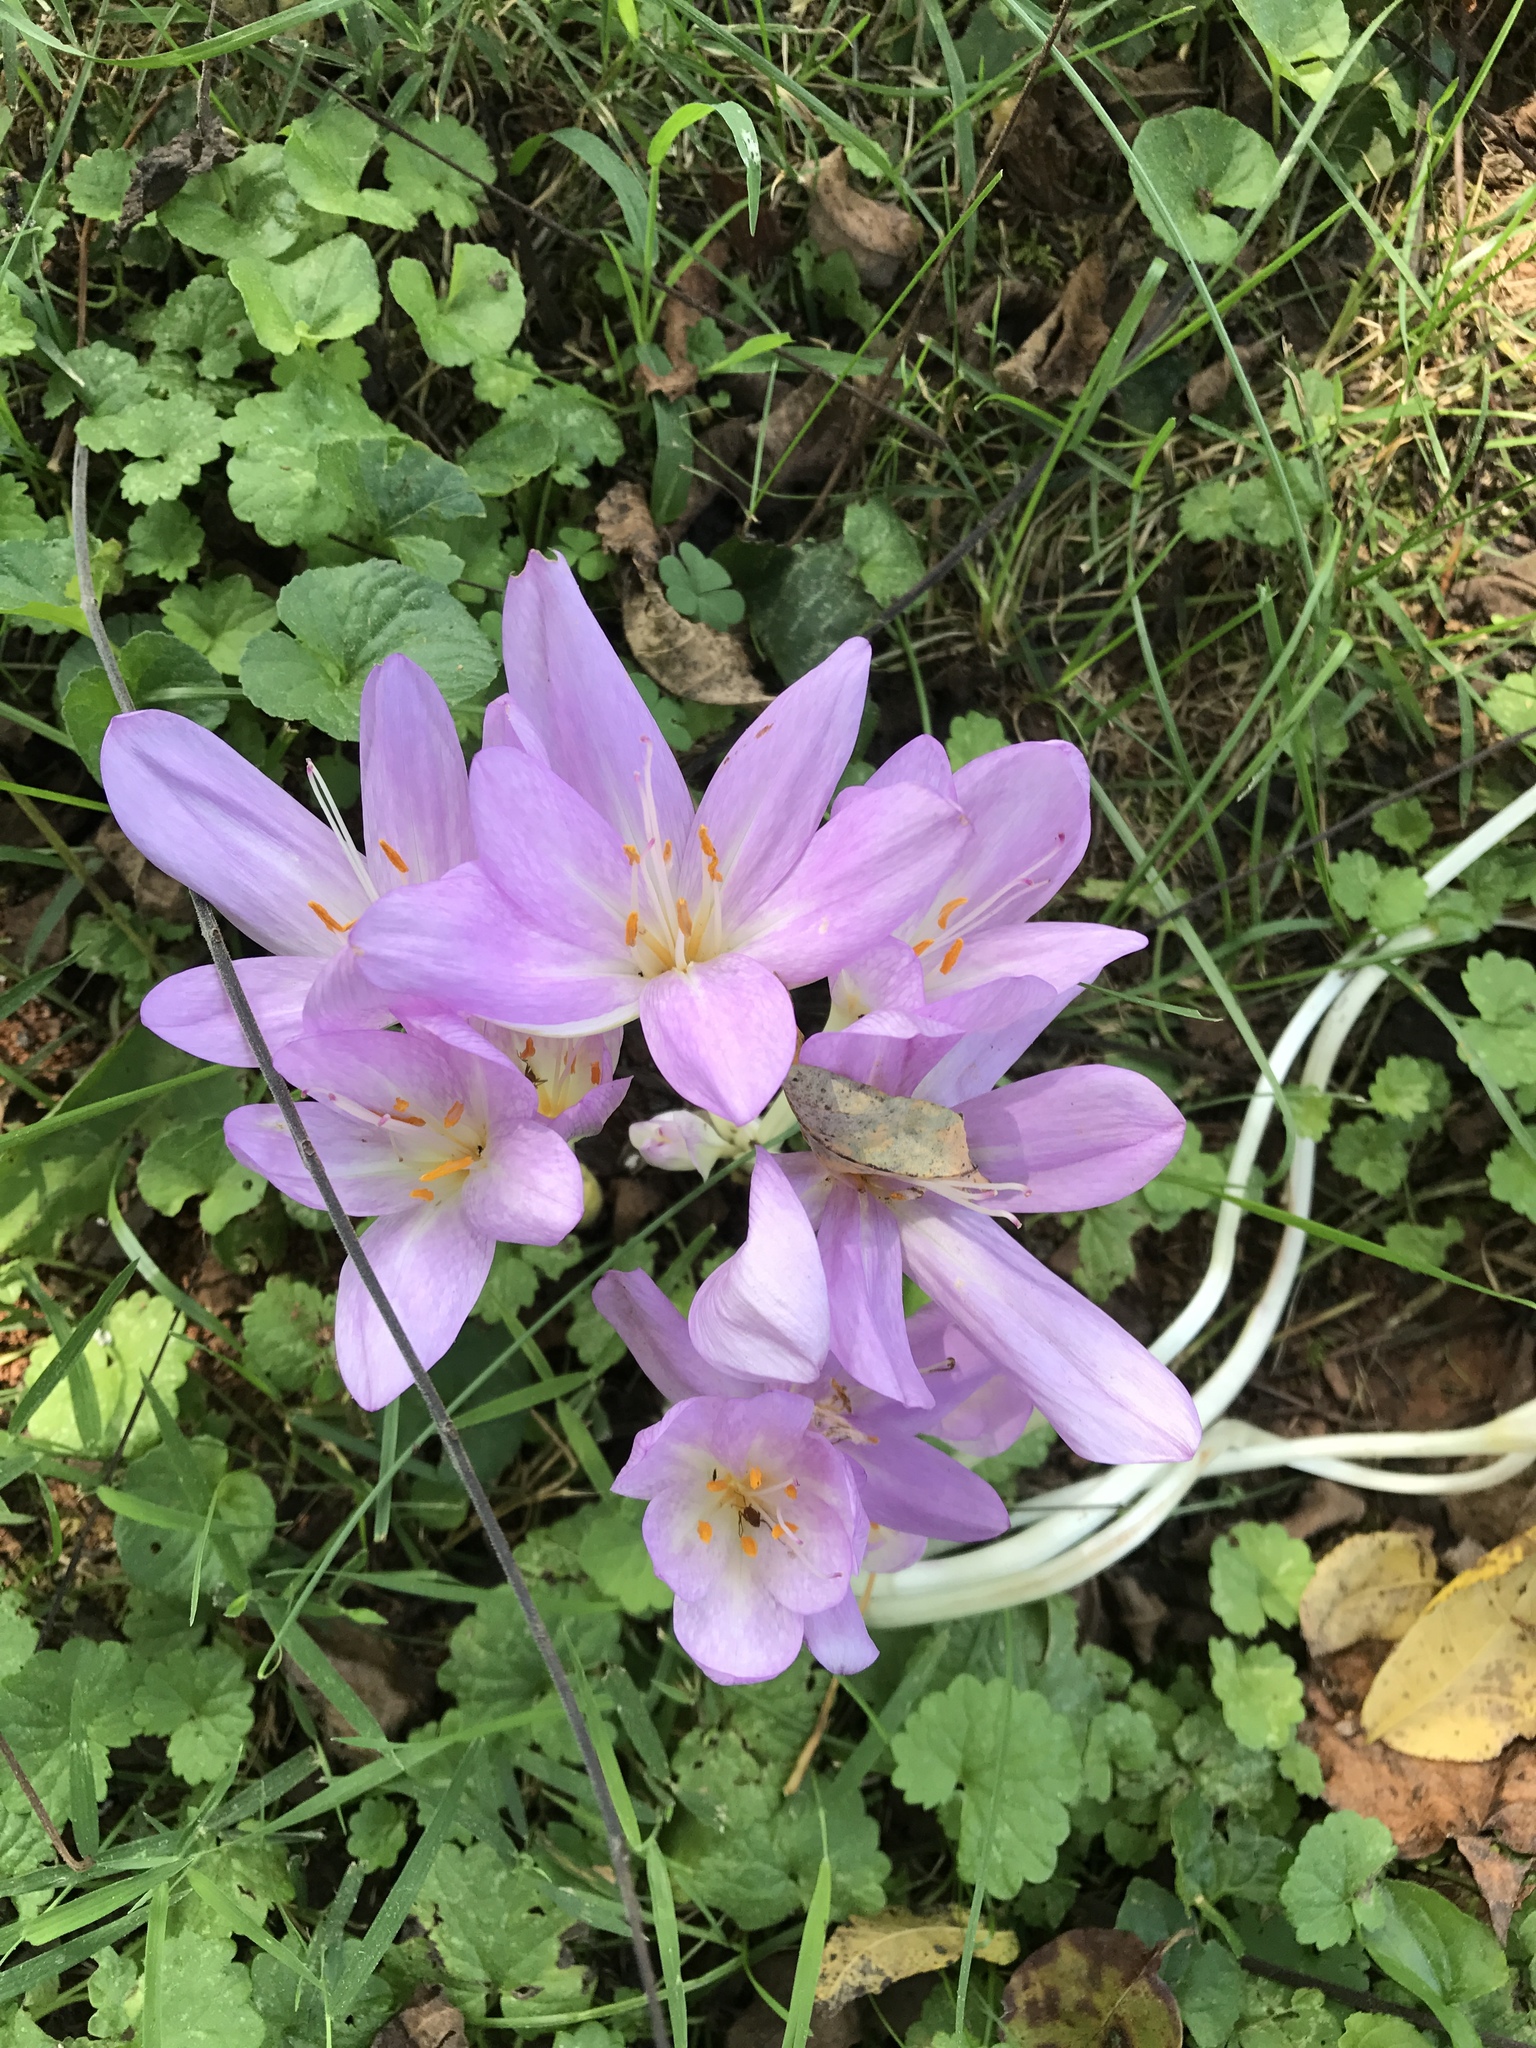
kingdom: Plantae
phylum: Tracheophyta
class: Liliopsida
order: Liliales
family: Colchicaceae
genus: Colchicum
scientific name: Colchicum autumnale
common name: Autumn crocus
